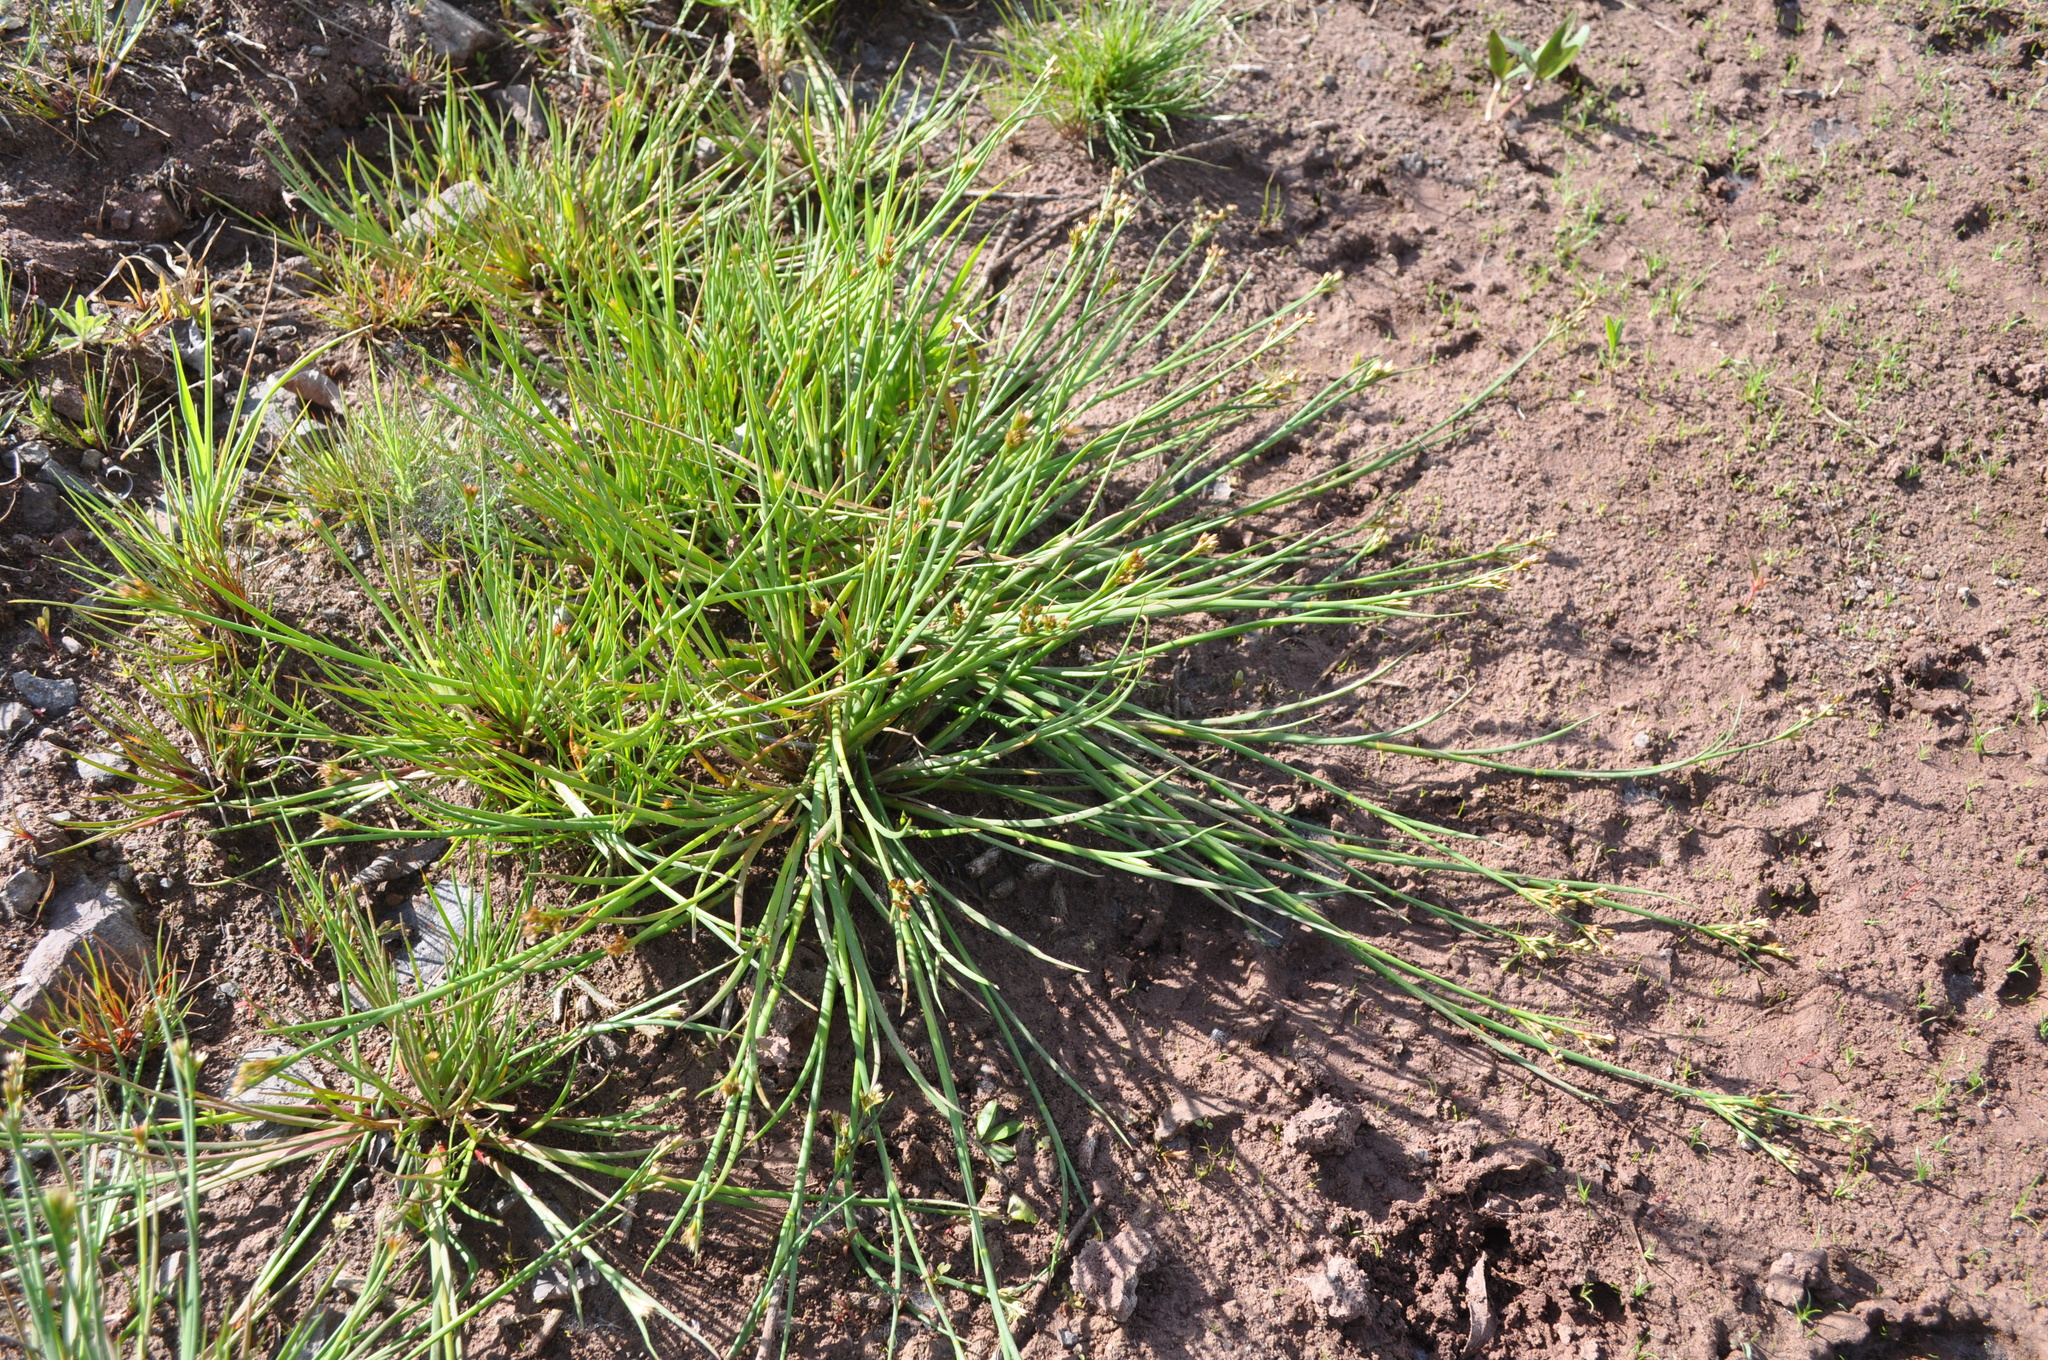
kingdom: Plantae
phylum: Tracheophyta
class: Liliopsida
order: Poales
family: Juncaceae
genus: Juncus
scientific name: Juncus articulatus
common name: Jointed rush
